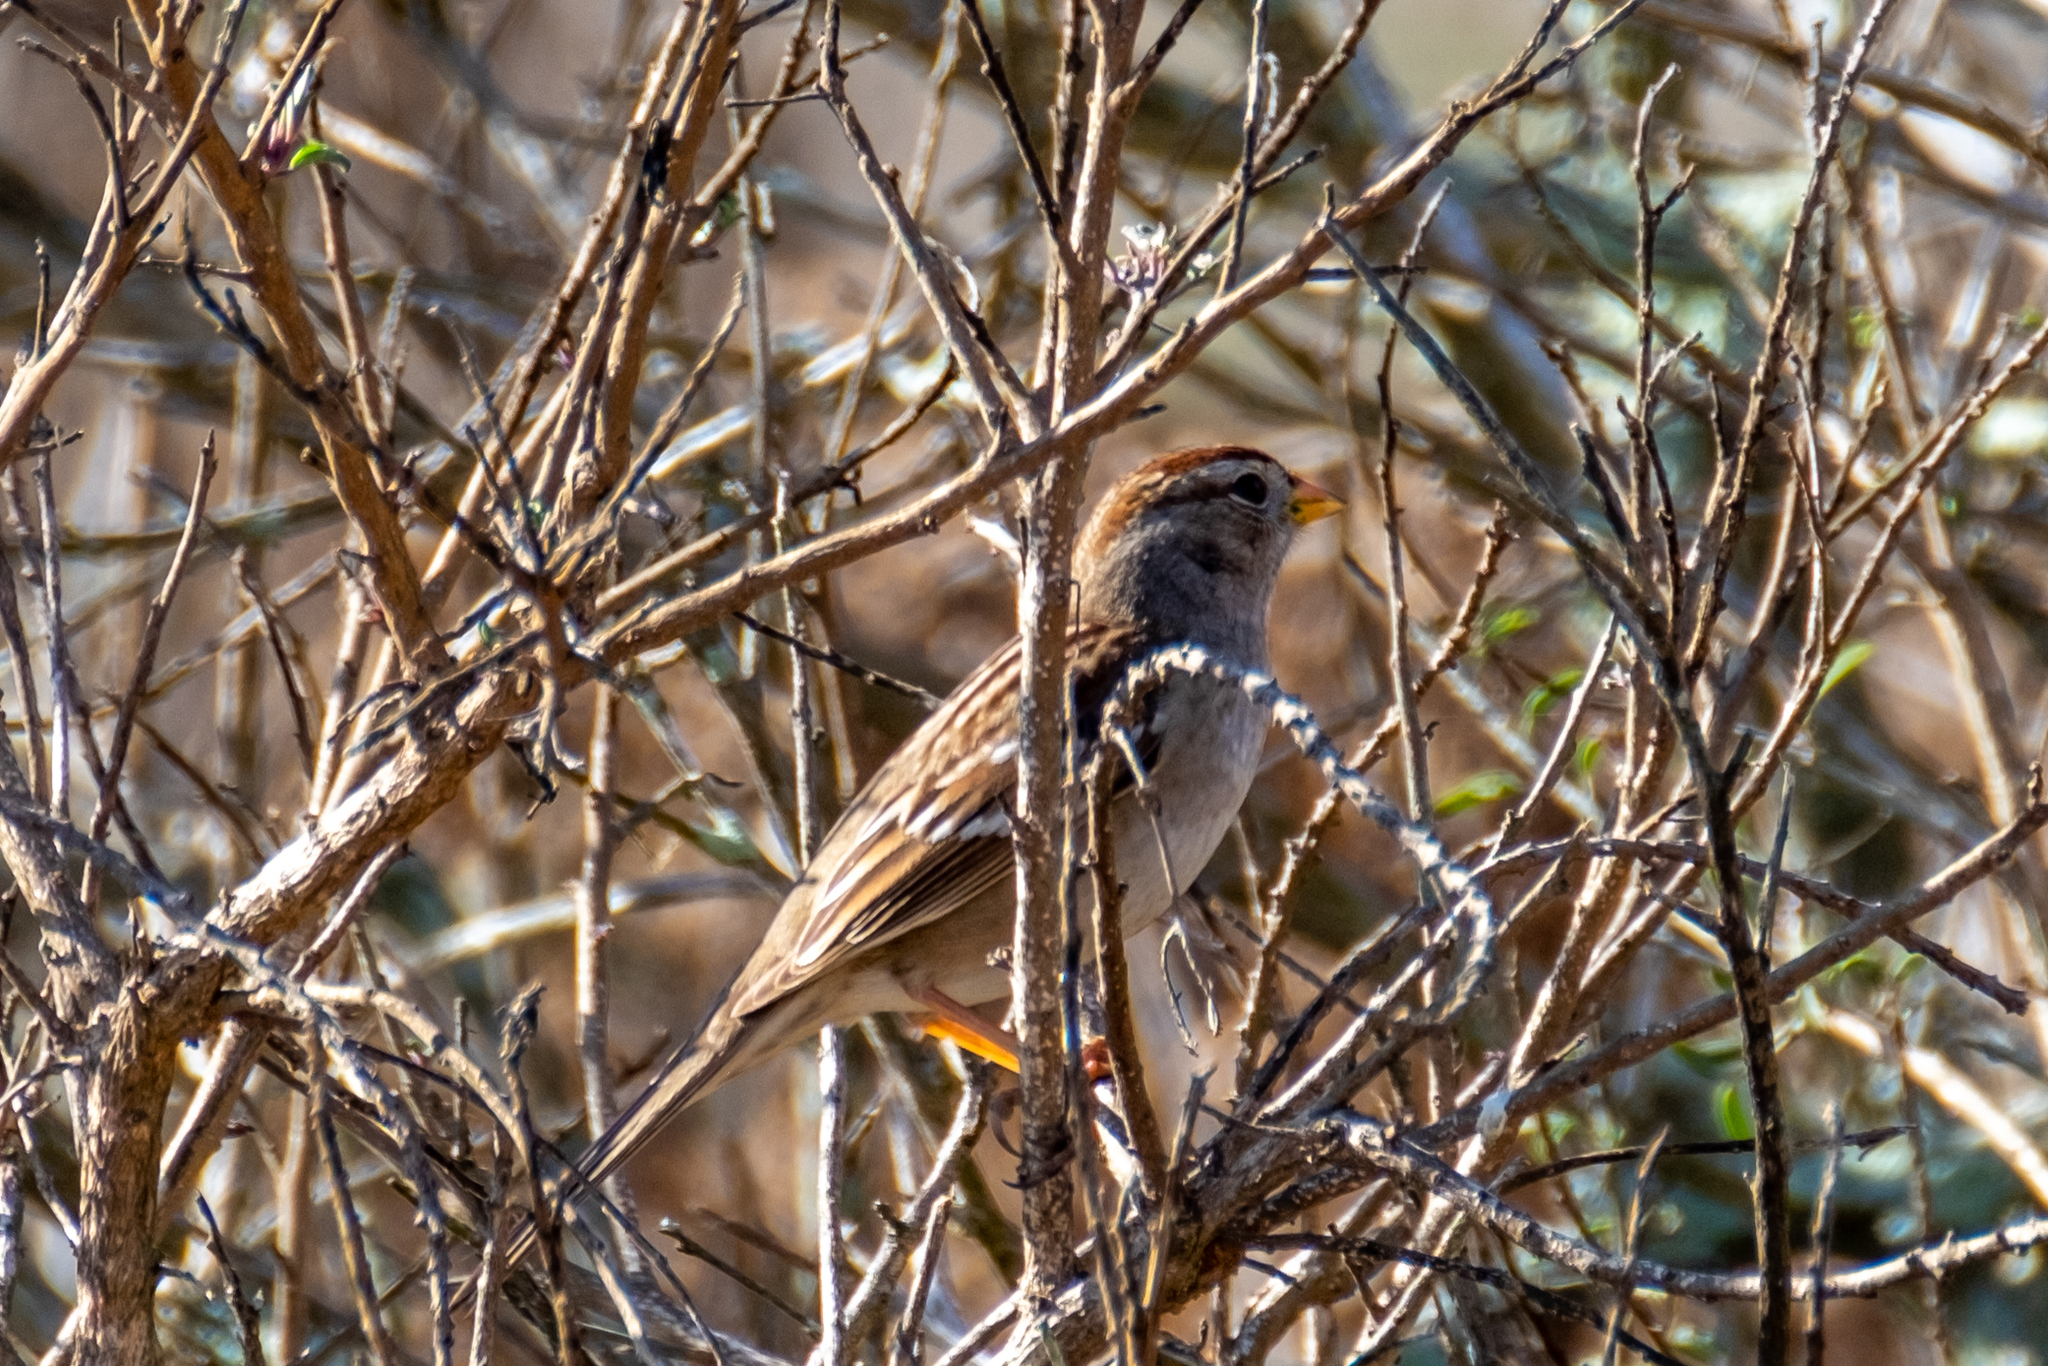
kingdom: Animalia
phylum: Chordata
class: Aves
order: Passeriformes
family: Passerellidae
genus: Zonotrichia
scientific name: Zonotrichia leucophrys
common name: White-crowned sparrow
